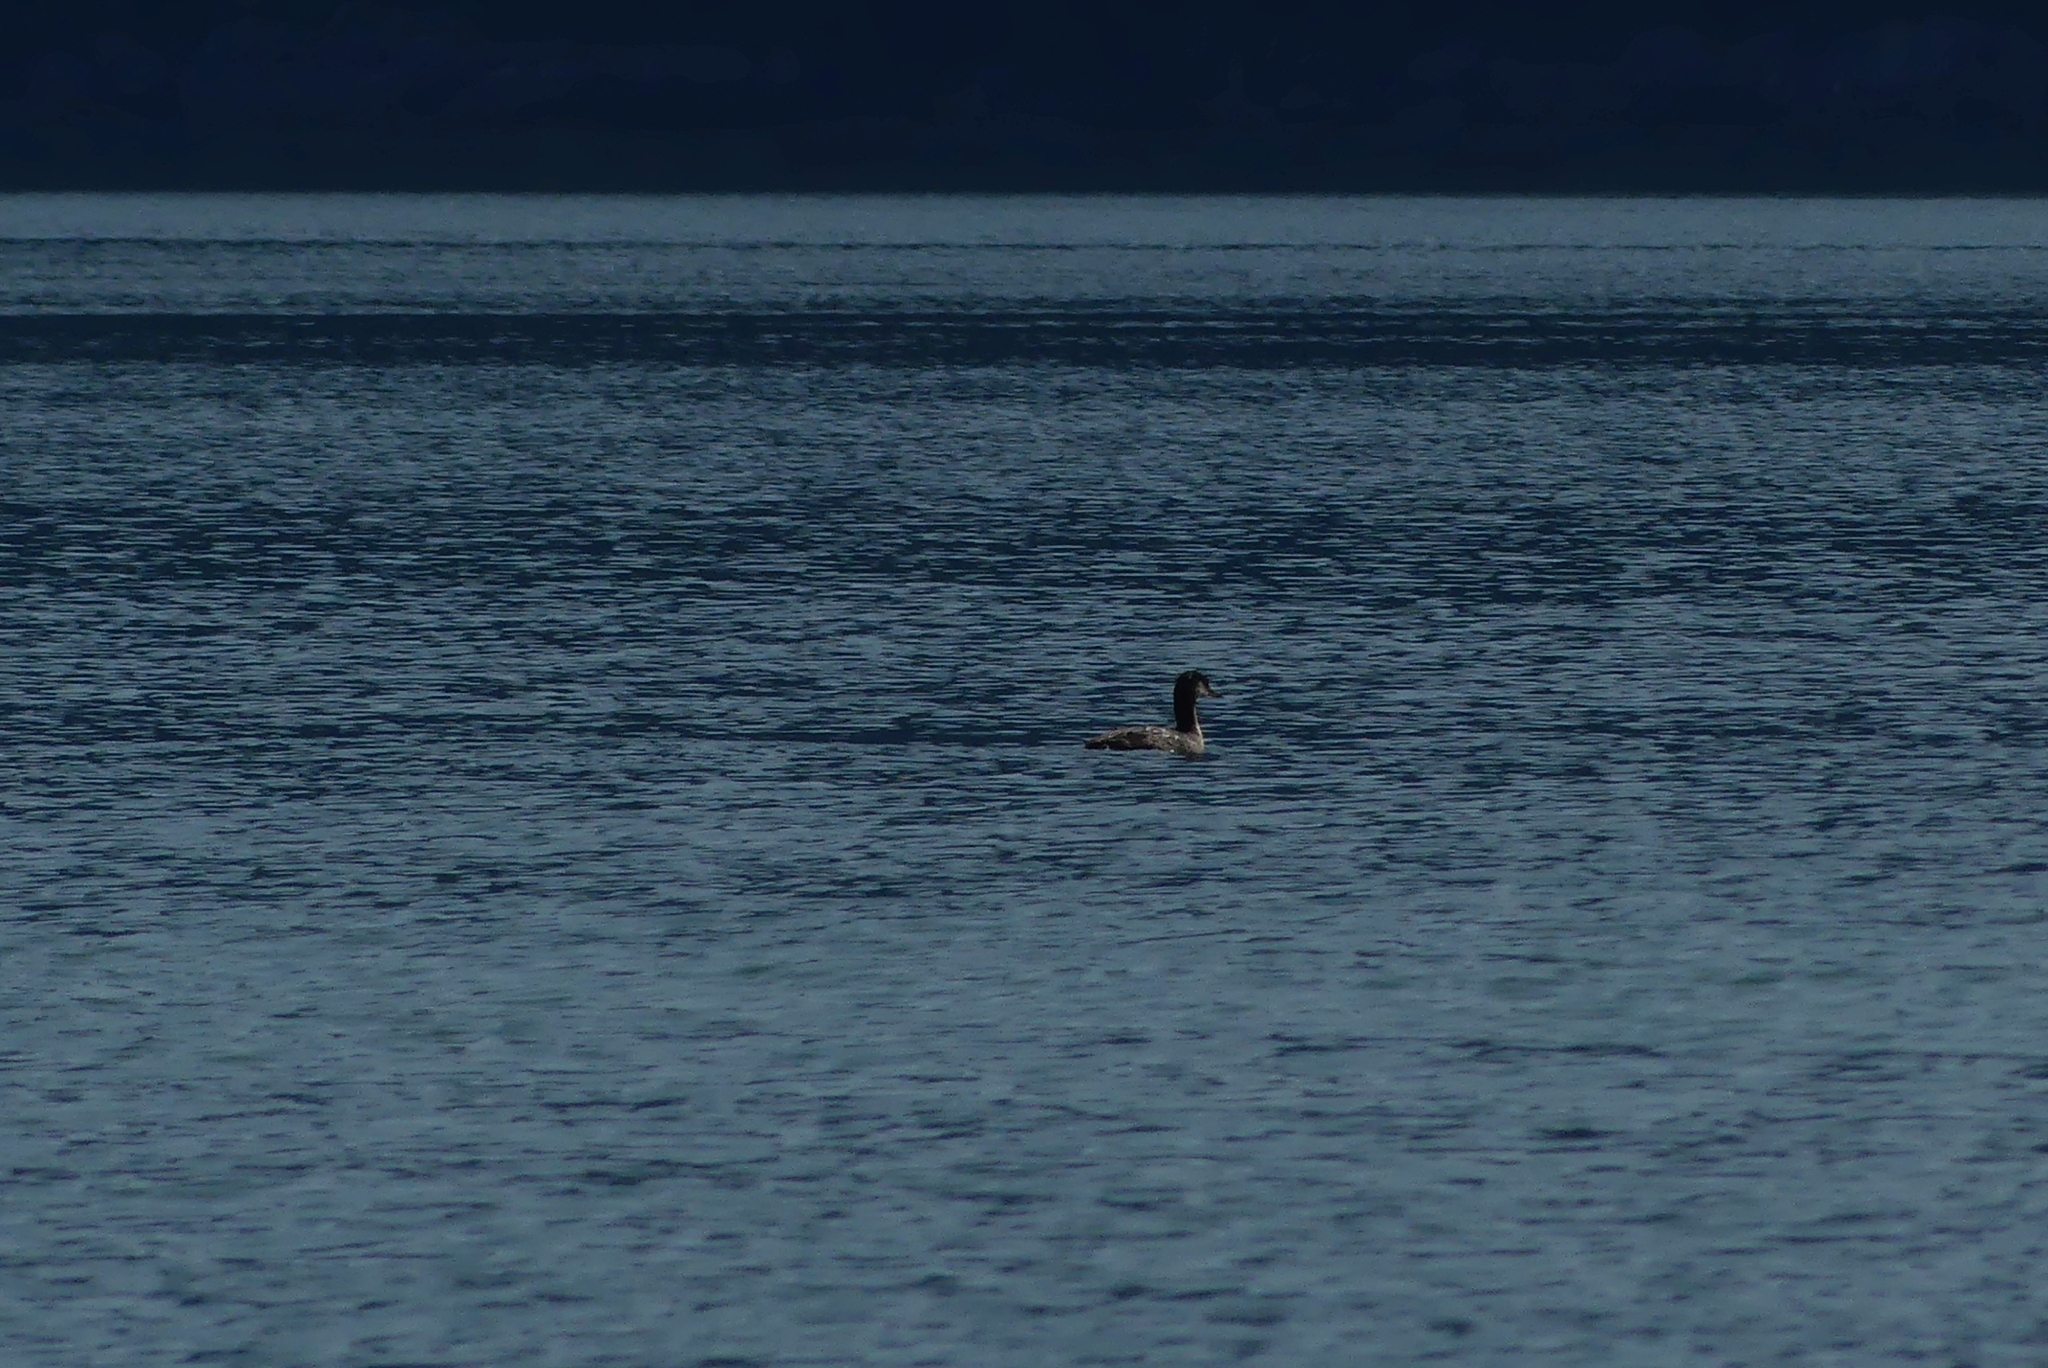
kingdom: Animalia
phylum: Chordata
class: Aves
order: Podicipediformes
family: Podicipedidae
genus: Podiceps
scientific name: Podiceps grisegena
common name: Red-necked grebe
